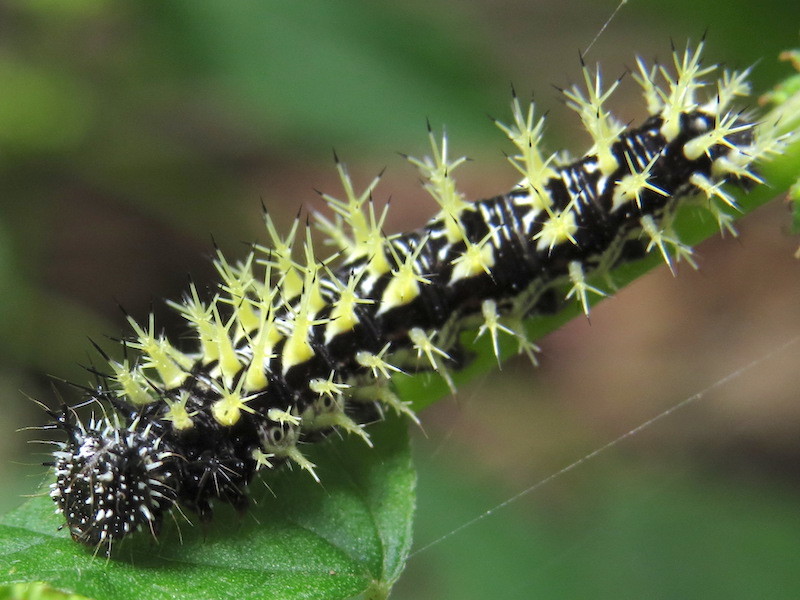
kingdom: Animalia
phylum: Arthropoda
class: Insecta
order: Lepidoptera
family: Nymphalidae
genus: Polygonia
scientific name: Polygonia comma
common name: Eastern comma
